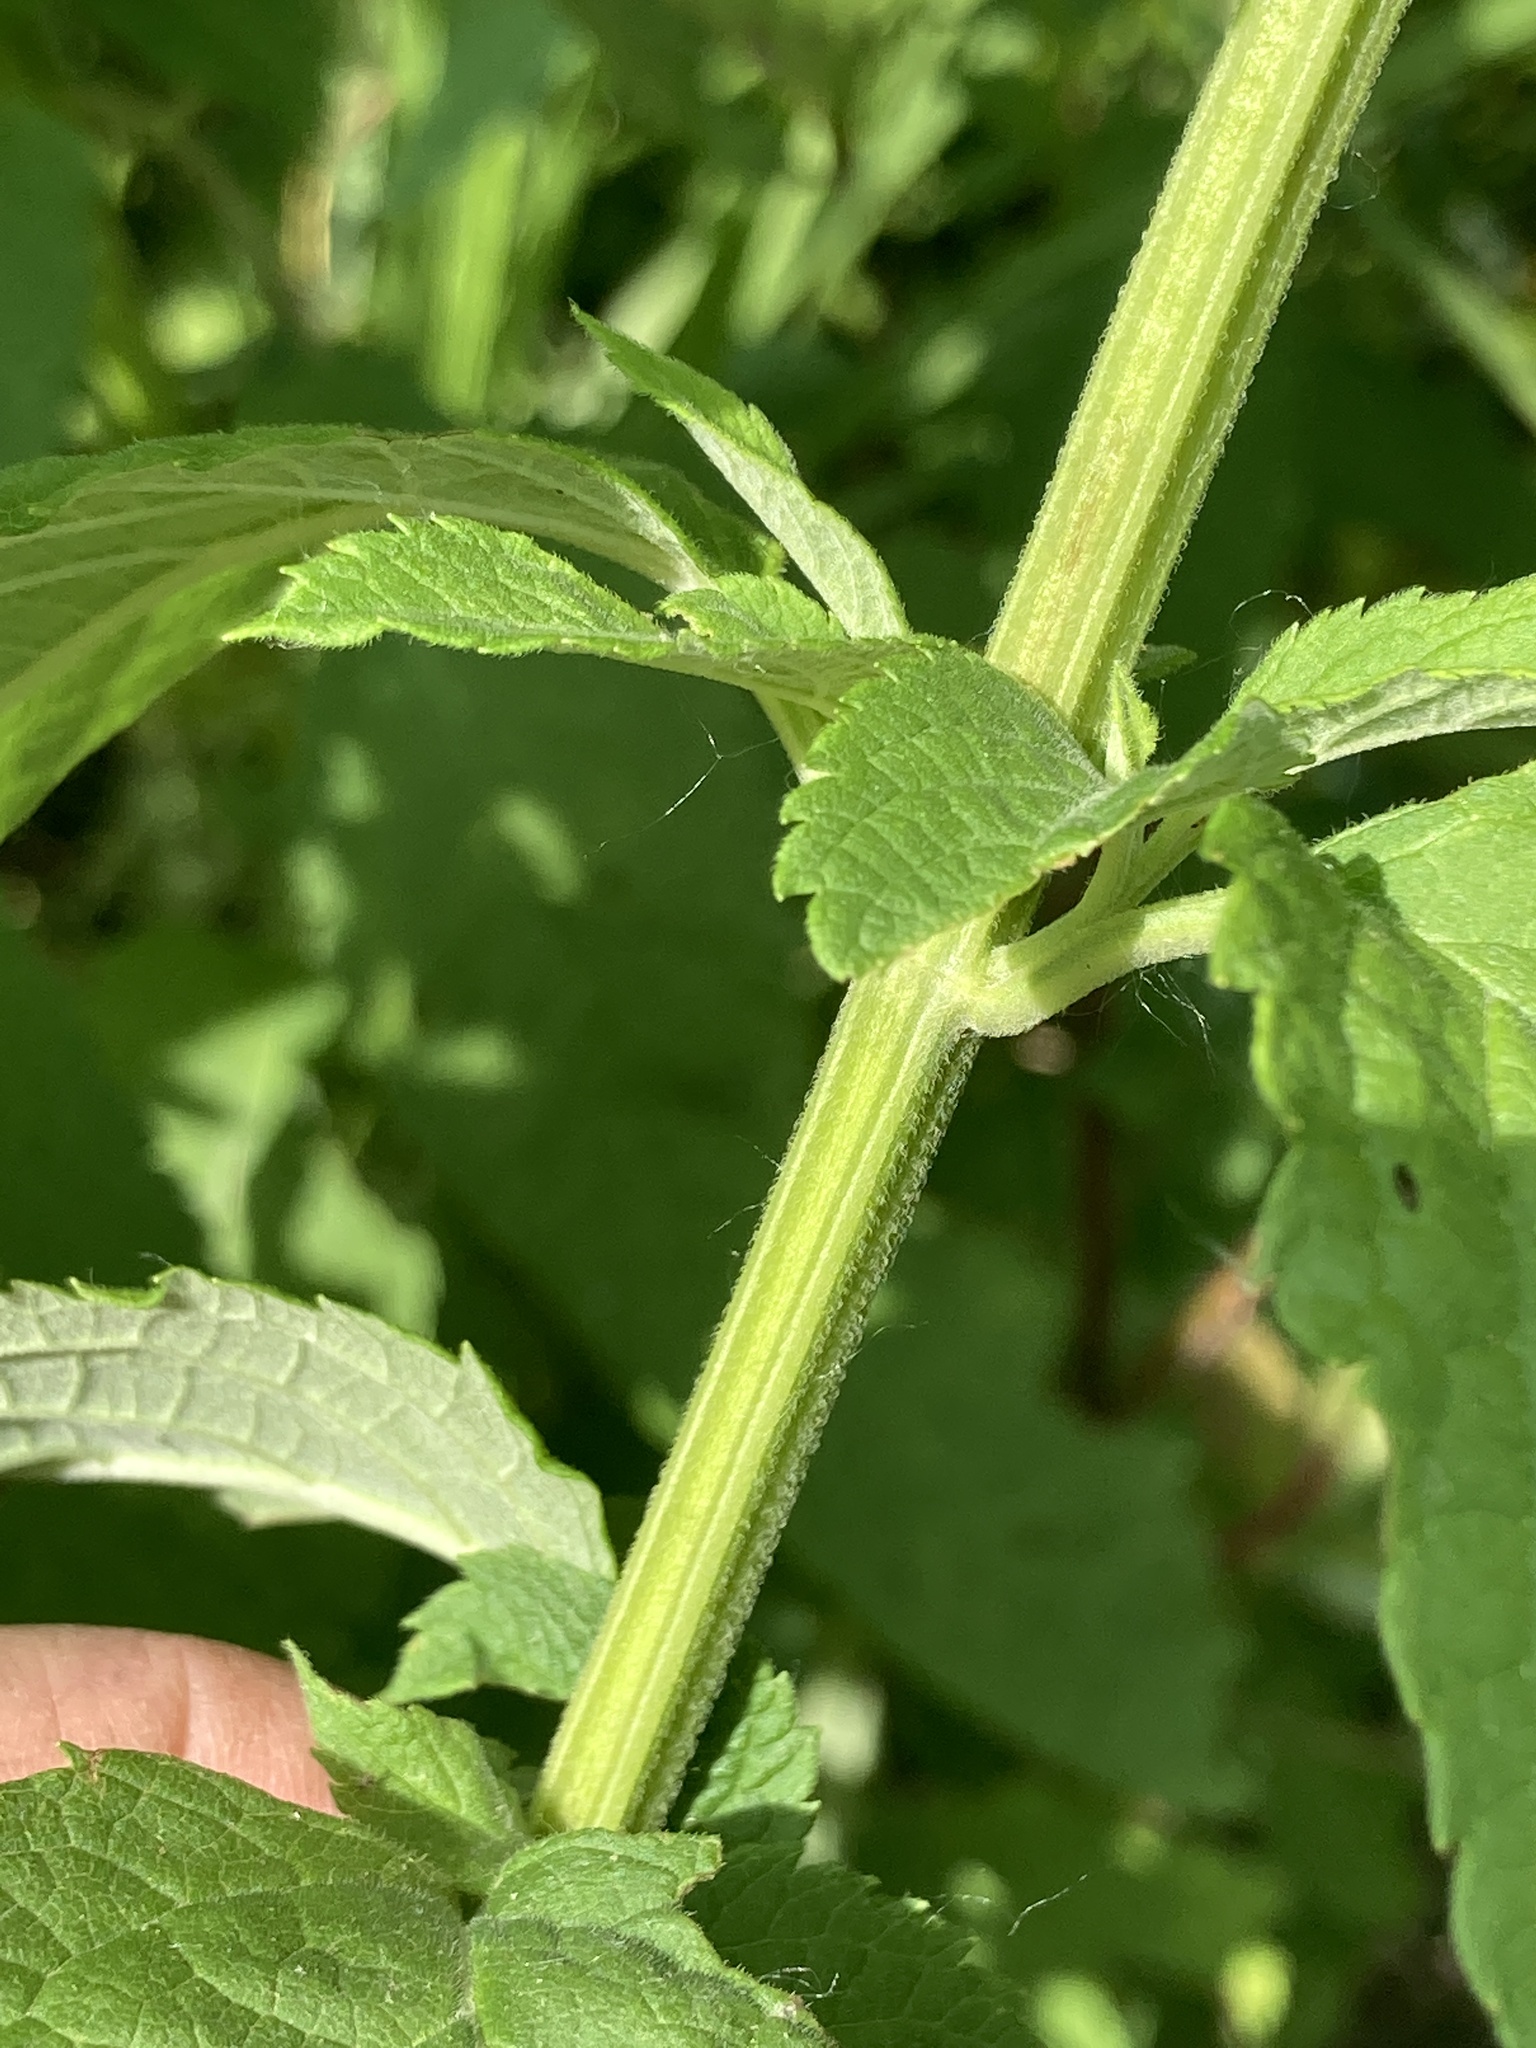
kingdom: Plantae
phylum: Tracheophyta
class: Magnoliopsida
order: Lamiales
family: Lamiaceae
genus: Teucrium
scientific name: Teucrium canadense
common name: American germander
